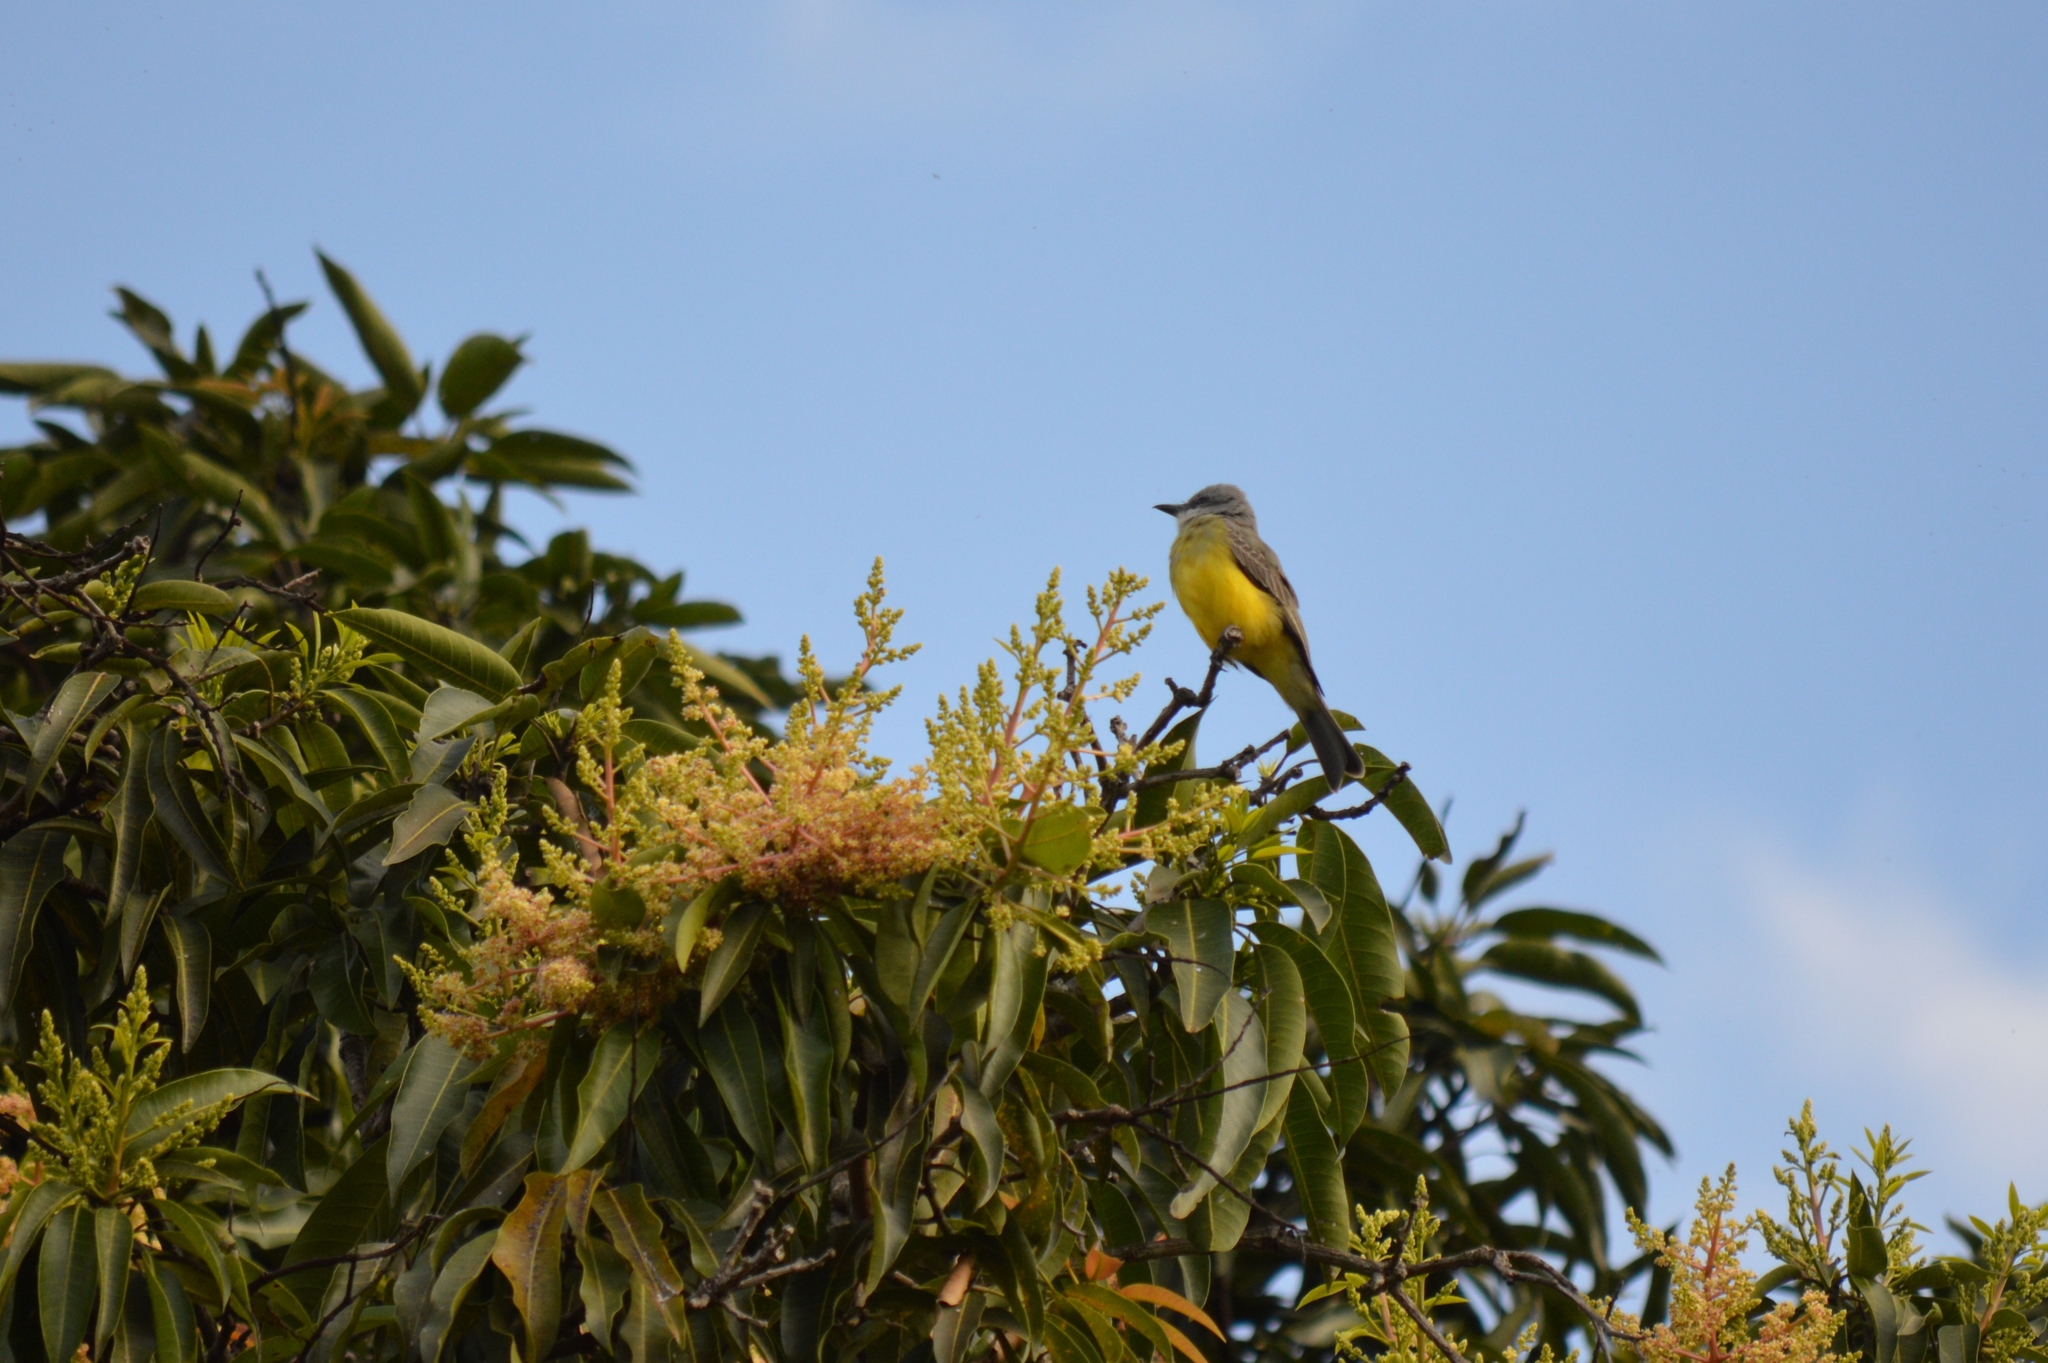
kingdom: Animalia
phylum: Chordata
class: Aves
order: Passeriformes
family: Tyrannidae
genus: Tyrannus
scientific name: Tyrannus melancholicus
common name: Tropical kingbird
